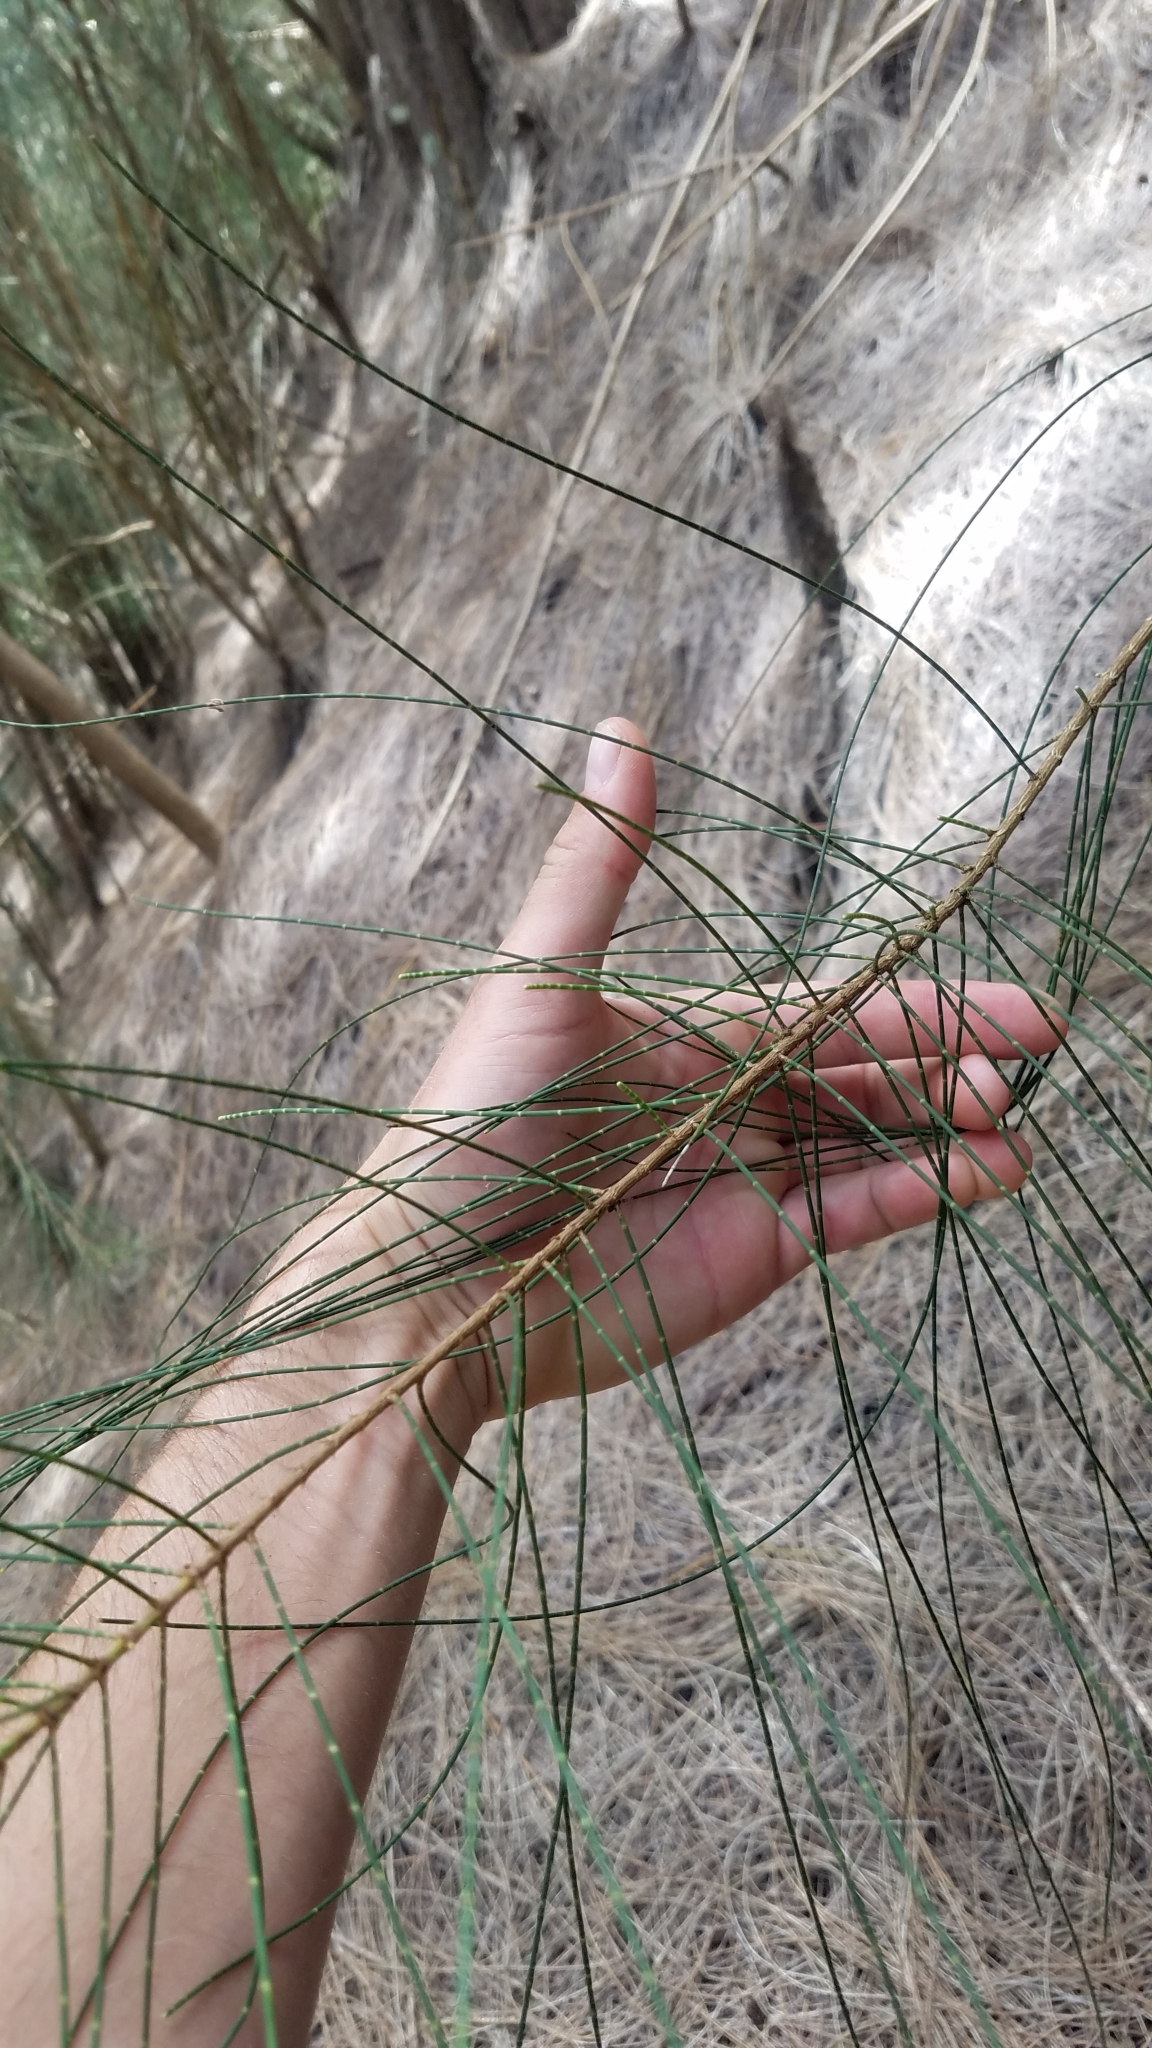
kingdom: Plantae
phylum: Tracheophyta
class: Magnoliopsida
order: Fagales
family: Casuarinaceae
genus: Casuarina
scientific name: Casuarina equisetifolia
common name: Beach sheoak
